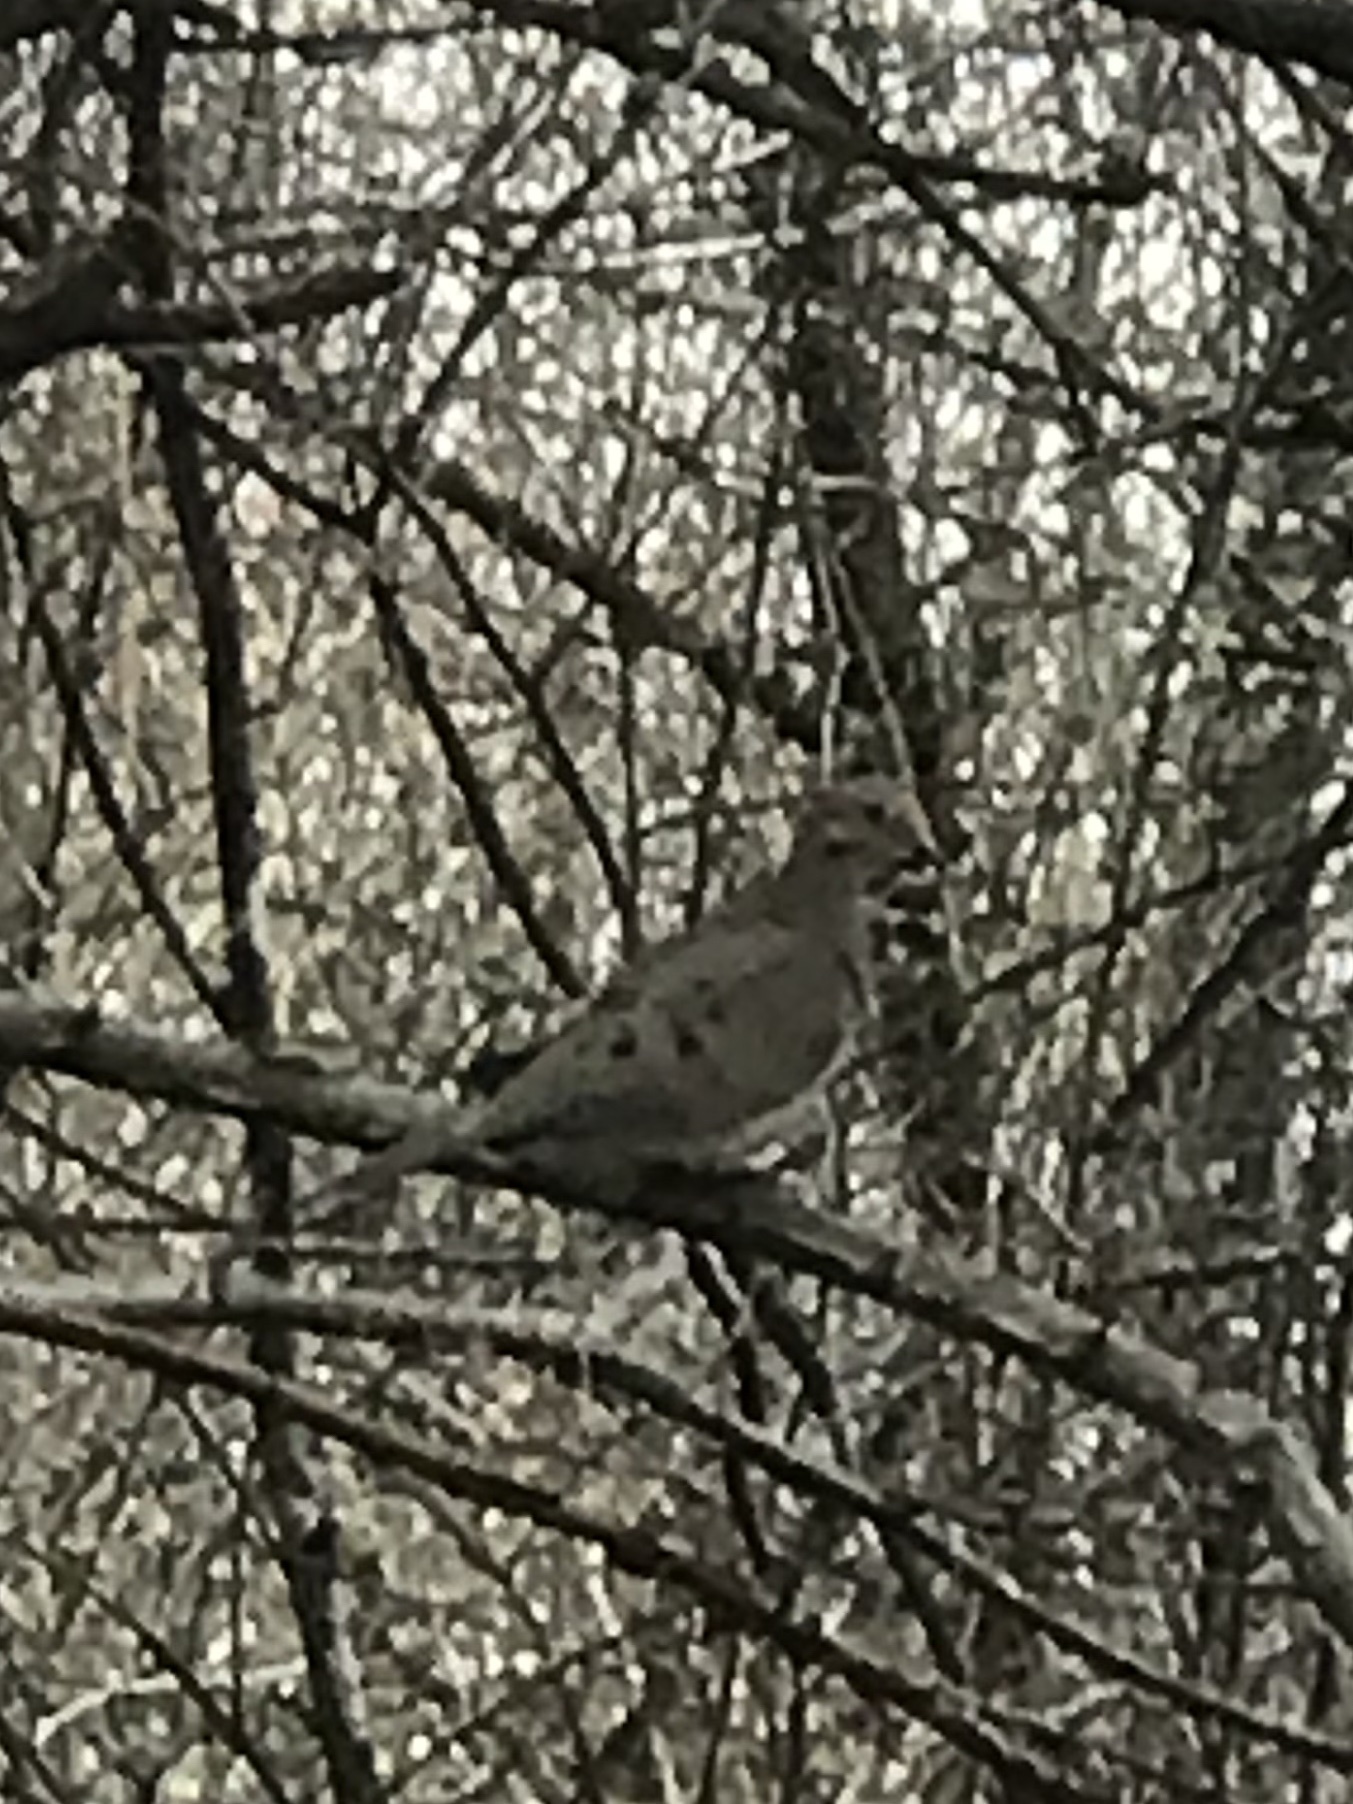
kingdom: Animalia
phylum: Chordata
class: Aves
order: Columbiformes
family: Columbidae
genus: Zenaida
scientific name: Zenaida macroura
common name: Mourning dove
